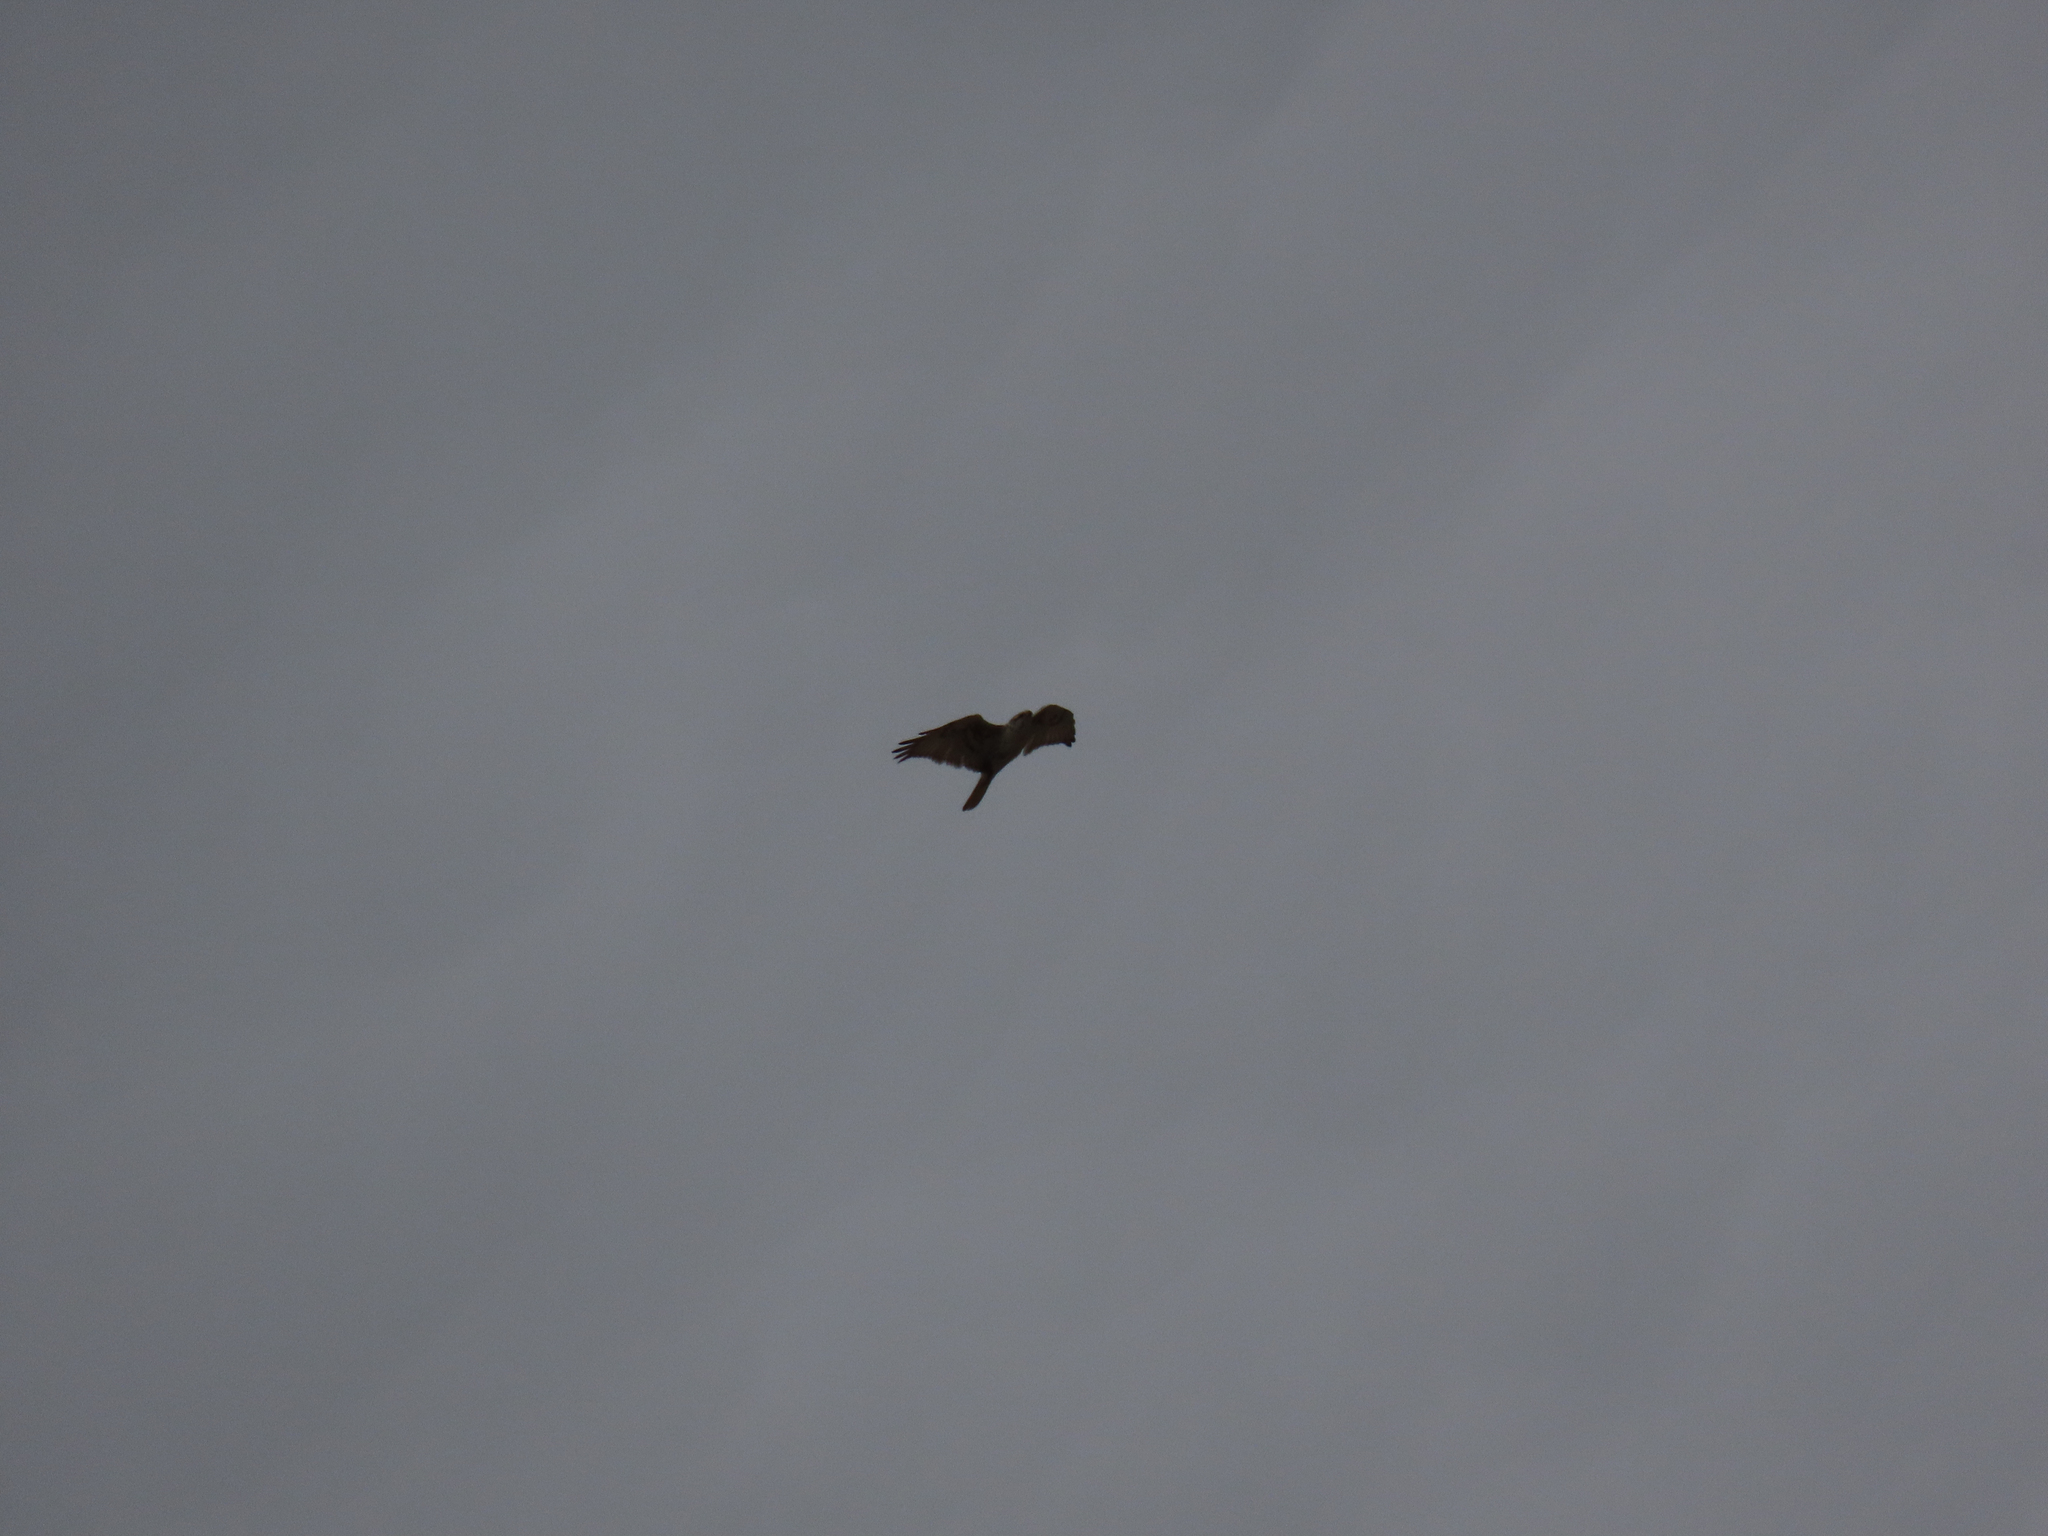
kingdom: Animalia
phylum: Chordata
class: Aves
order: Accipitriformes
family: Accipitridae
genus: Buteo
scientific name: Buteo regalis
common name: Ferruginous hawk
